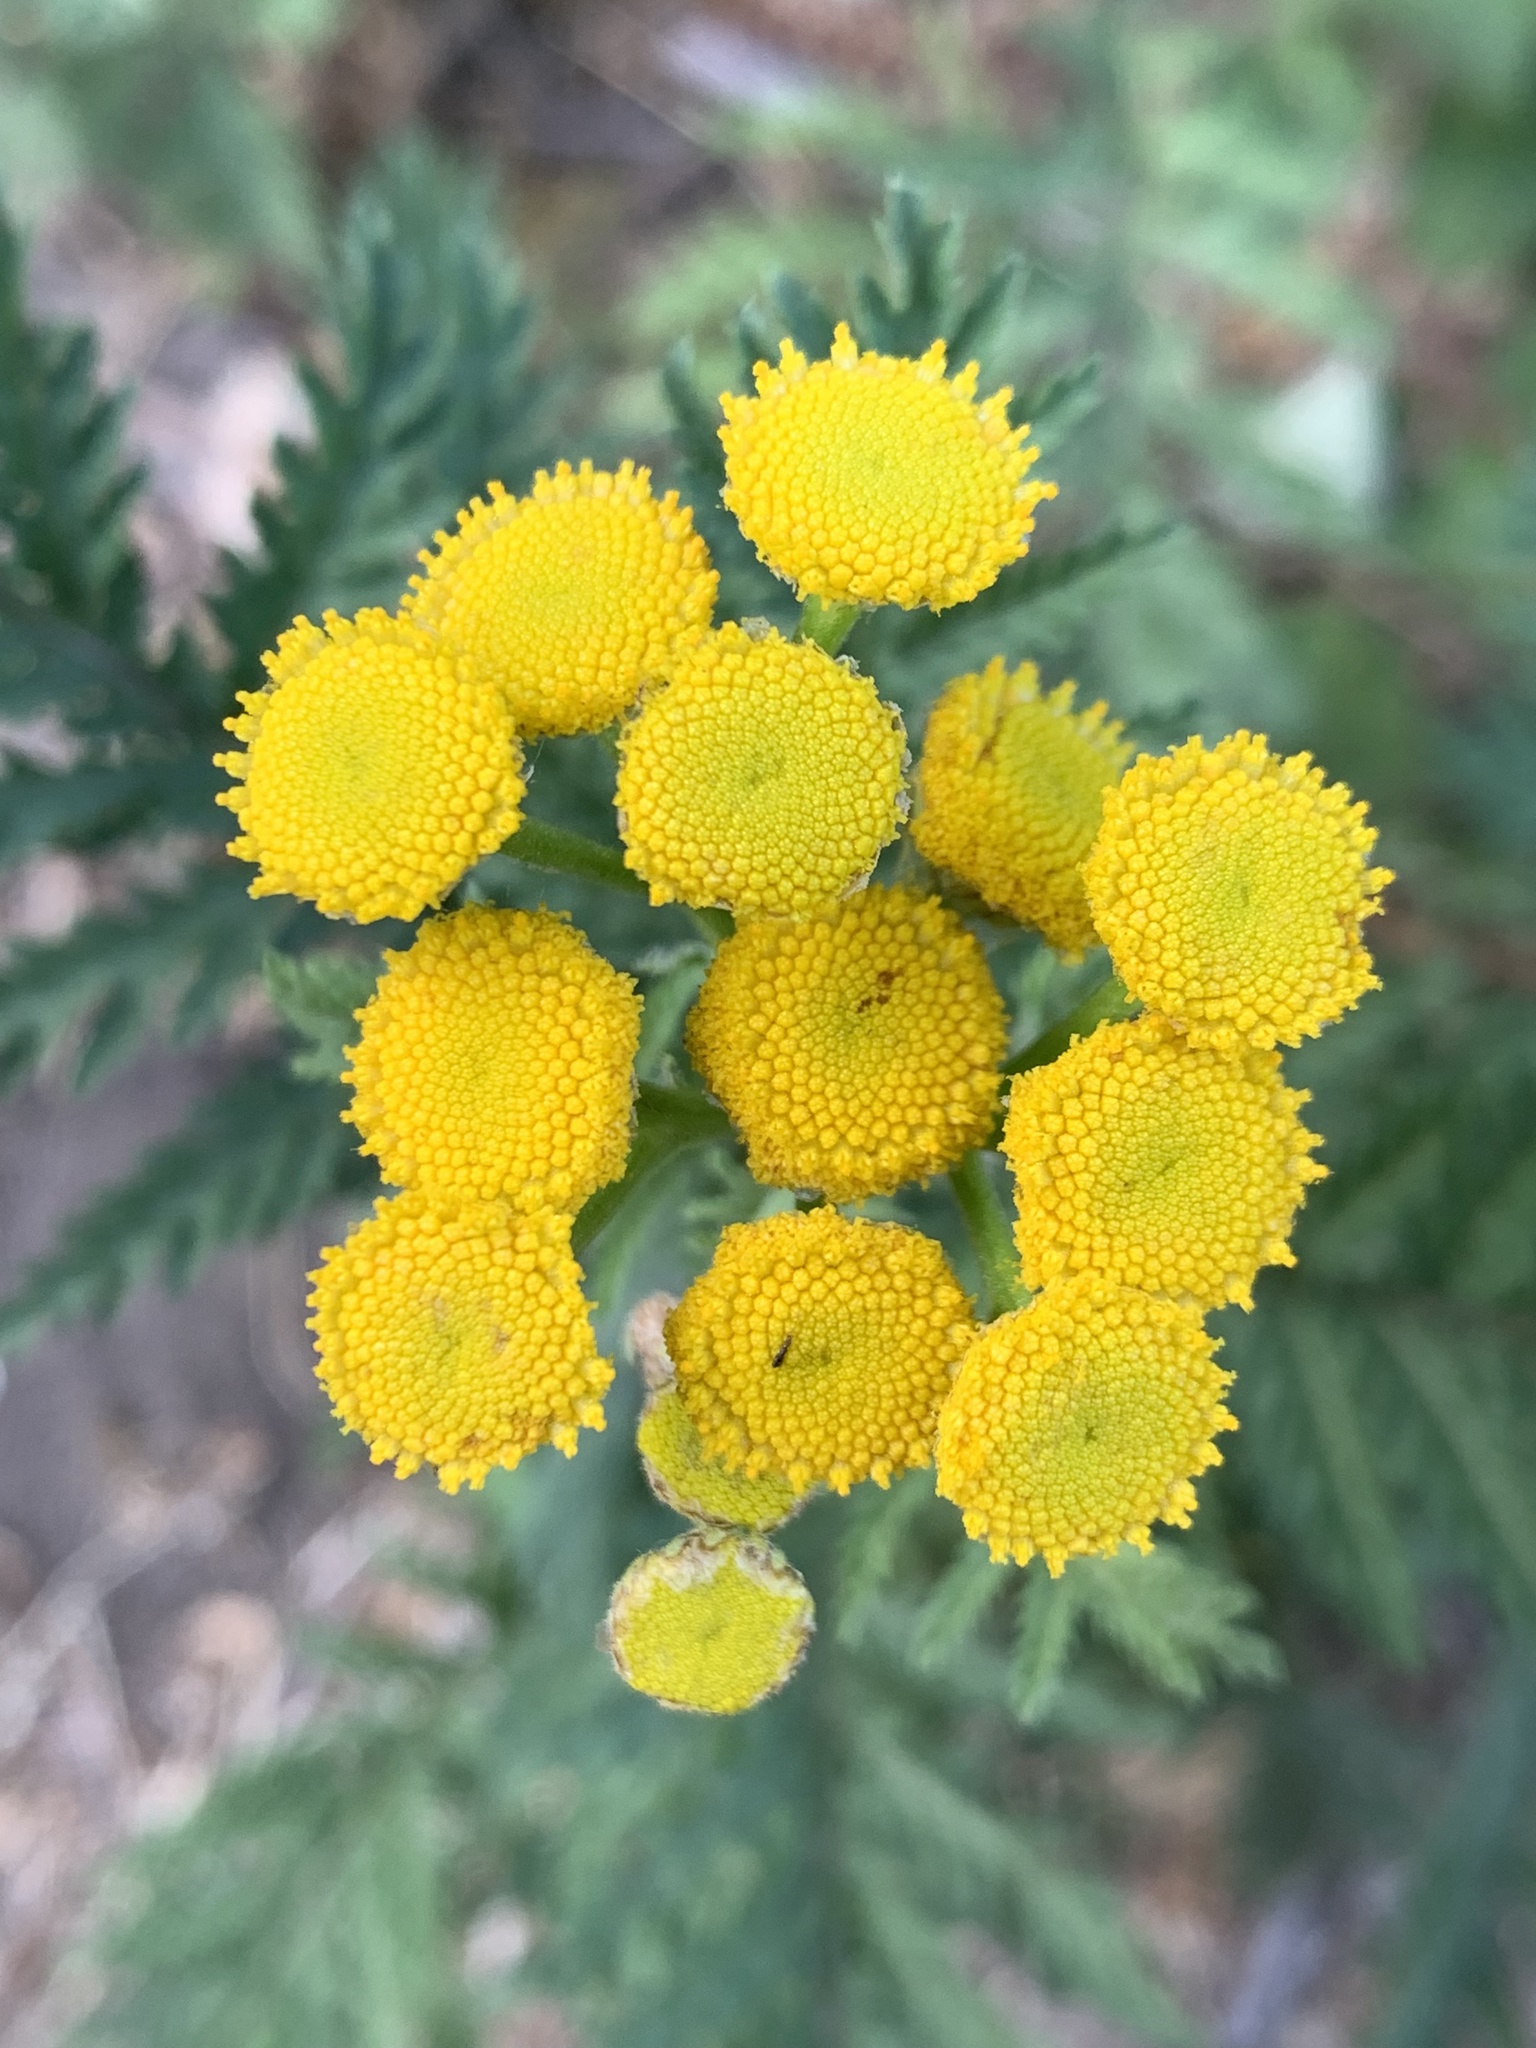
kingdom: Plantae
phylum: Tracheophyta
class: Magnoliopsida
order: Asterales
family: Asteraceae
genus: Tanacetum
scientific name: Tanacetum vulgare
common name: Common tansy
